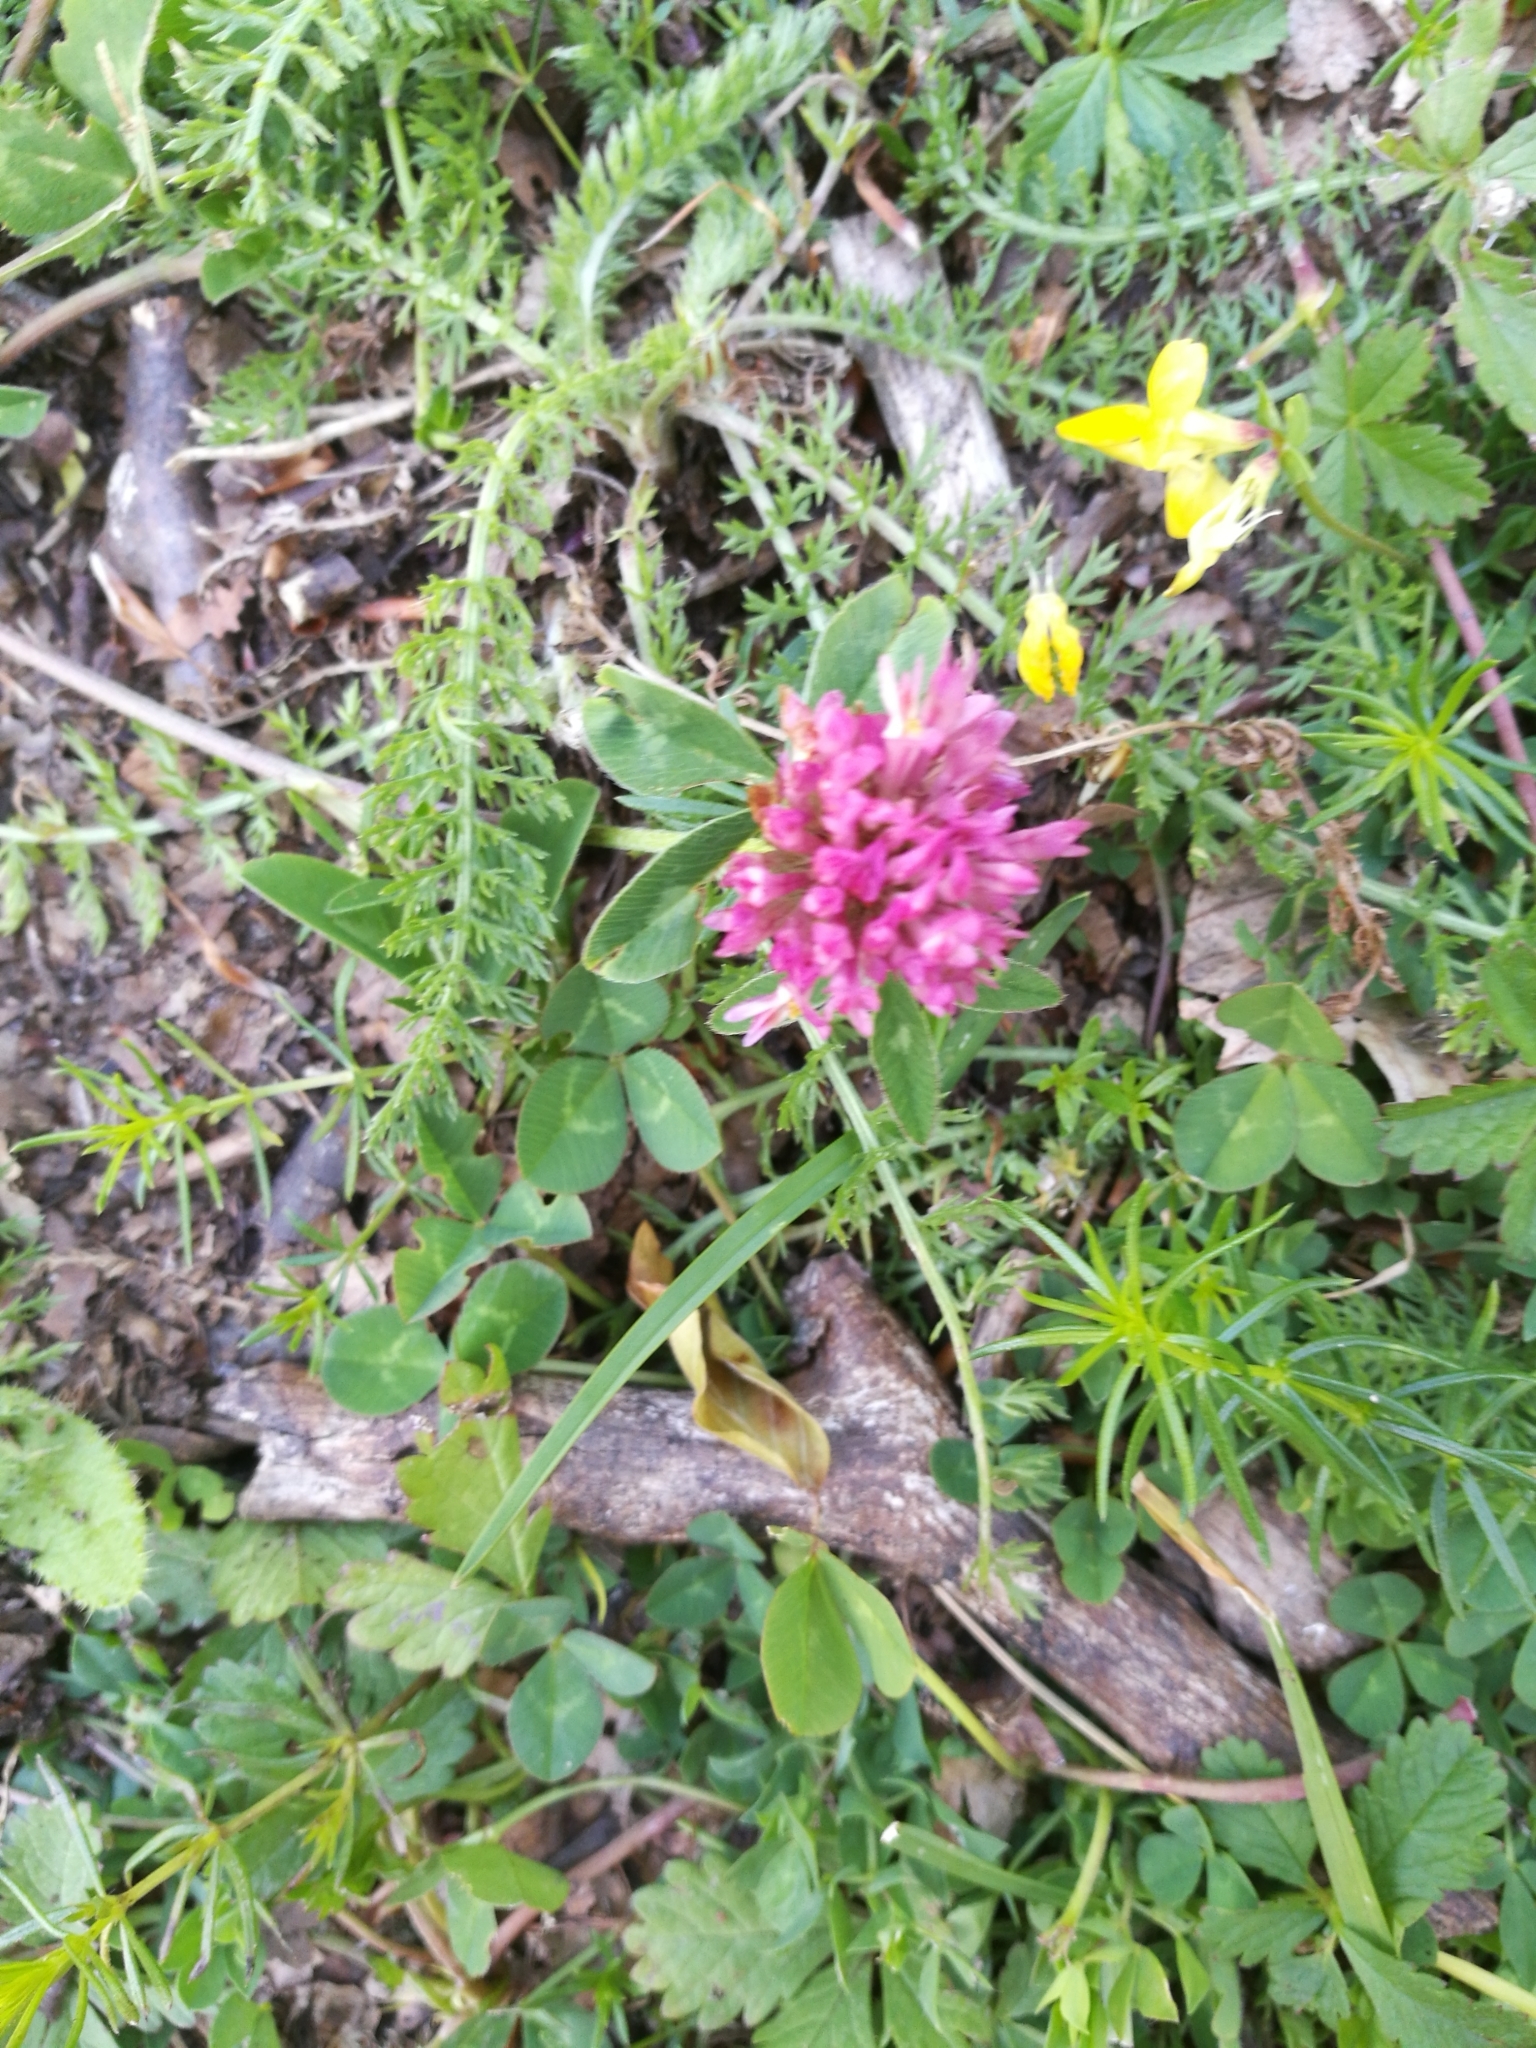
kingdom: Plantae
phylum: Tracheophyta
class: Magnoliopsida
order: Fabales
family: Fabaceae
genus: Trifolium
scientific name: Trifolium pratense
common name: Red clover
